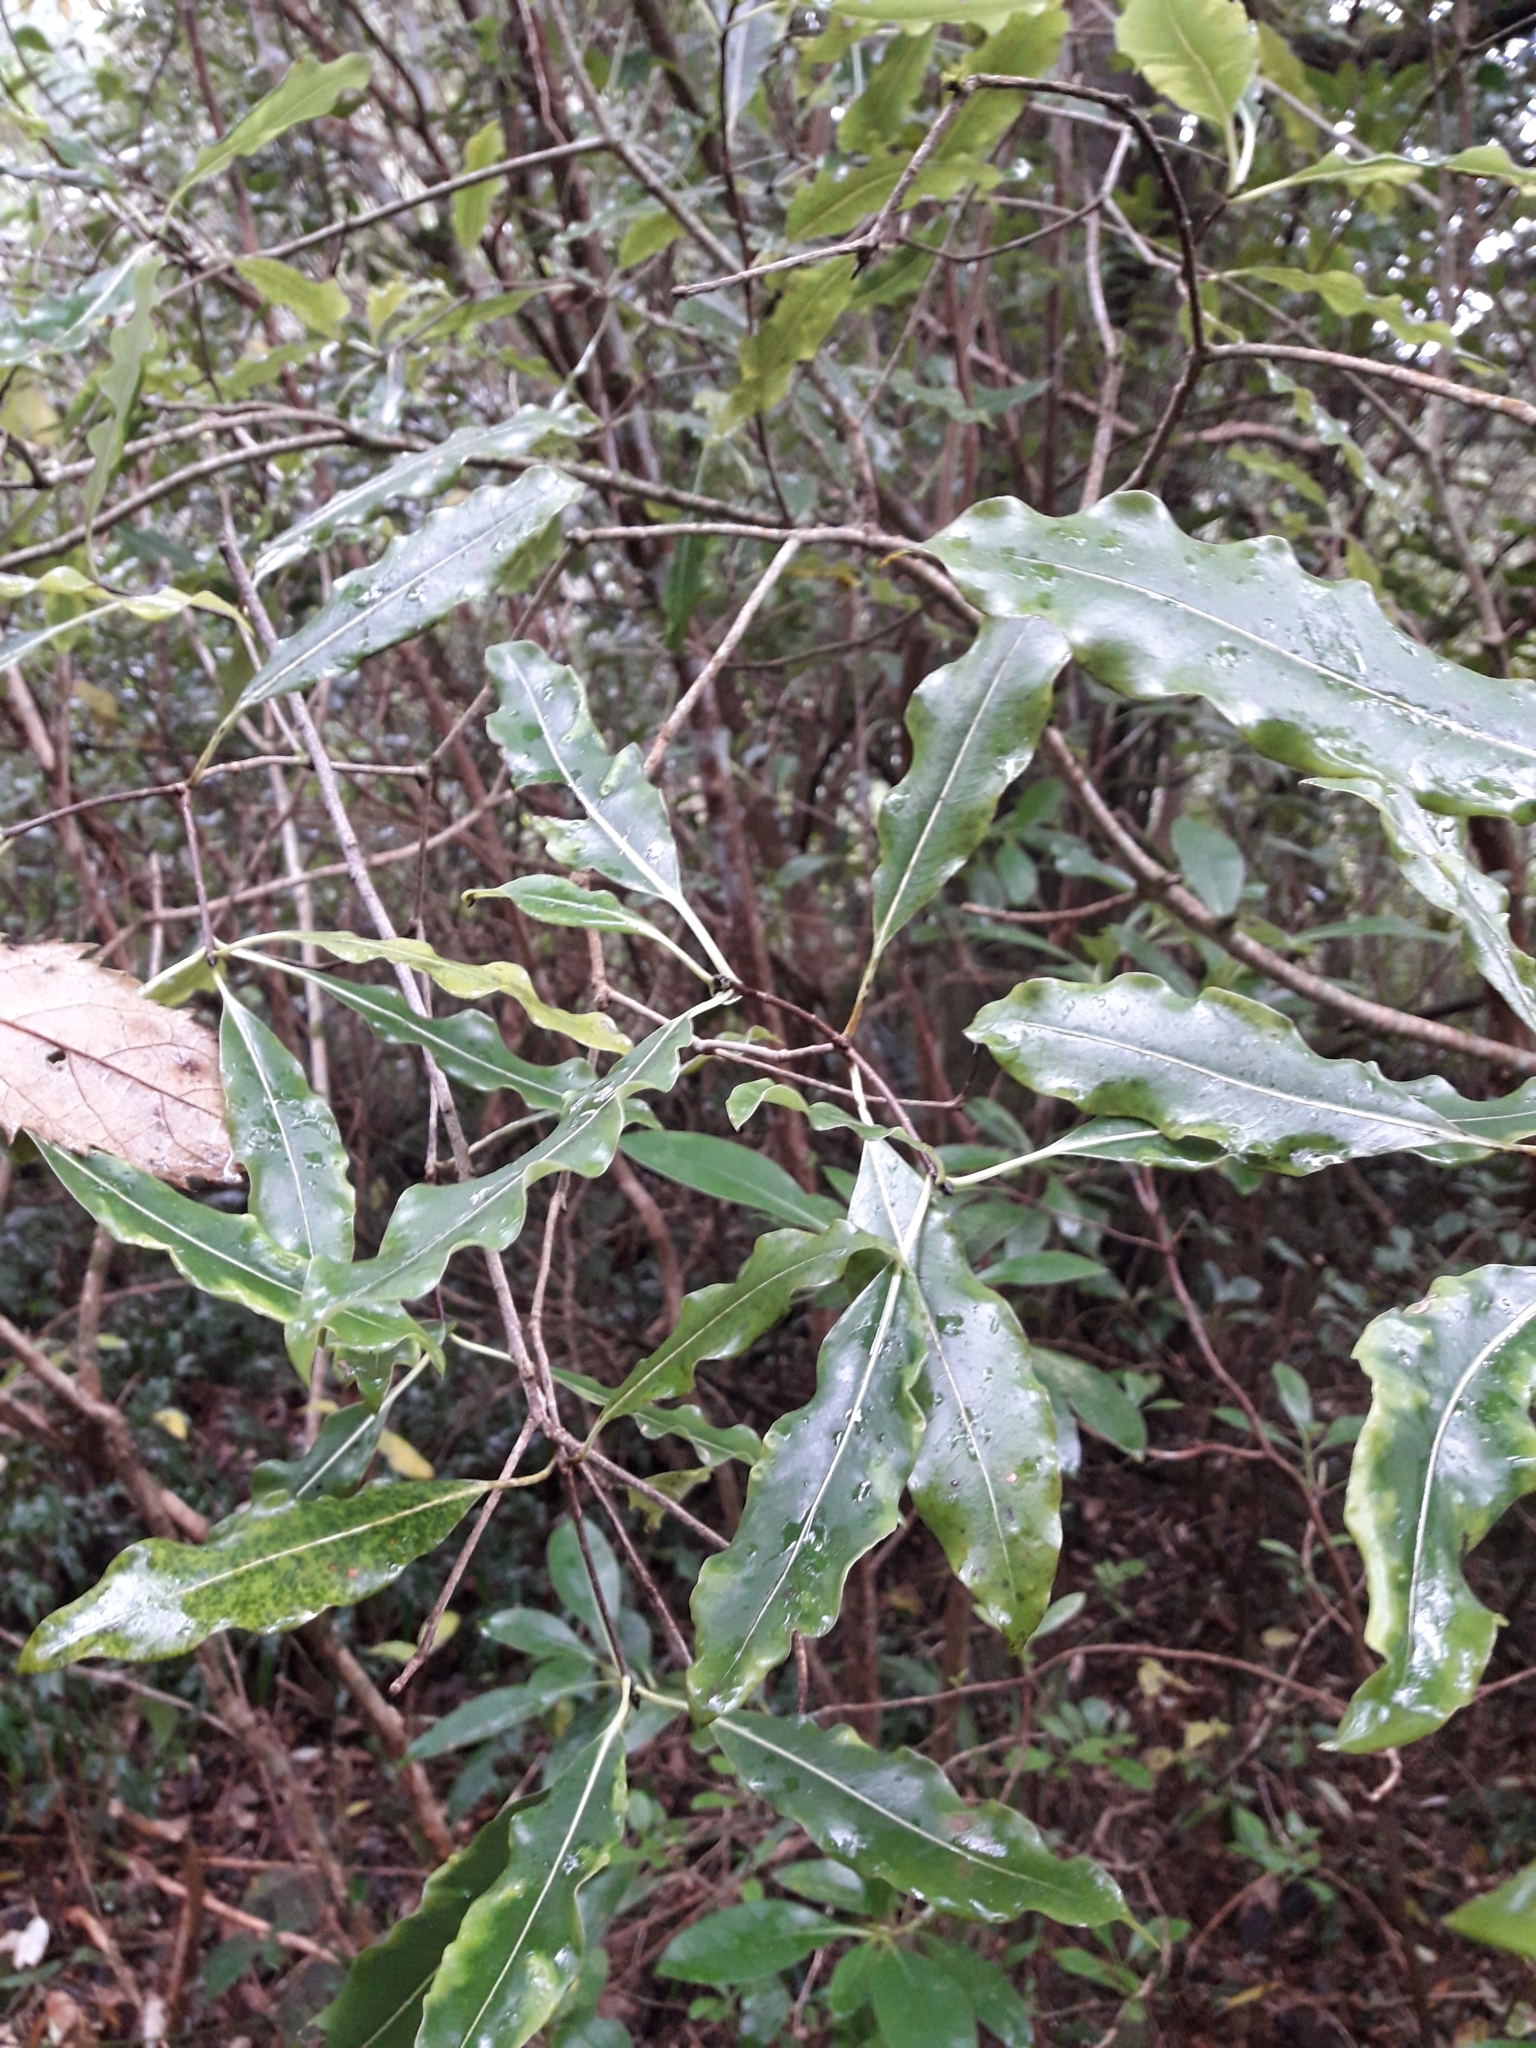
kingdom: Plantae
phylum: Tracheophyta
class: Magnoliopsida
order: Apiales
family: Pittosporaceae
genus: Pittosporum
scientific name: Pittosporum eugenioides
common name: Lemonwood
